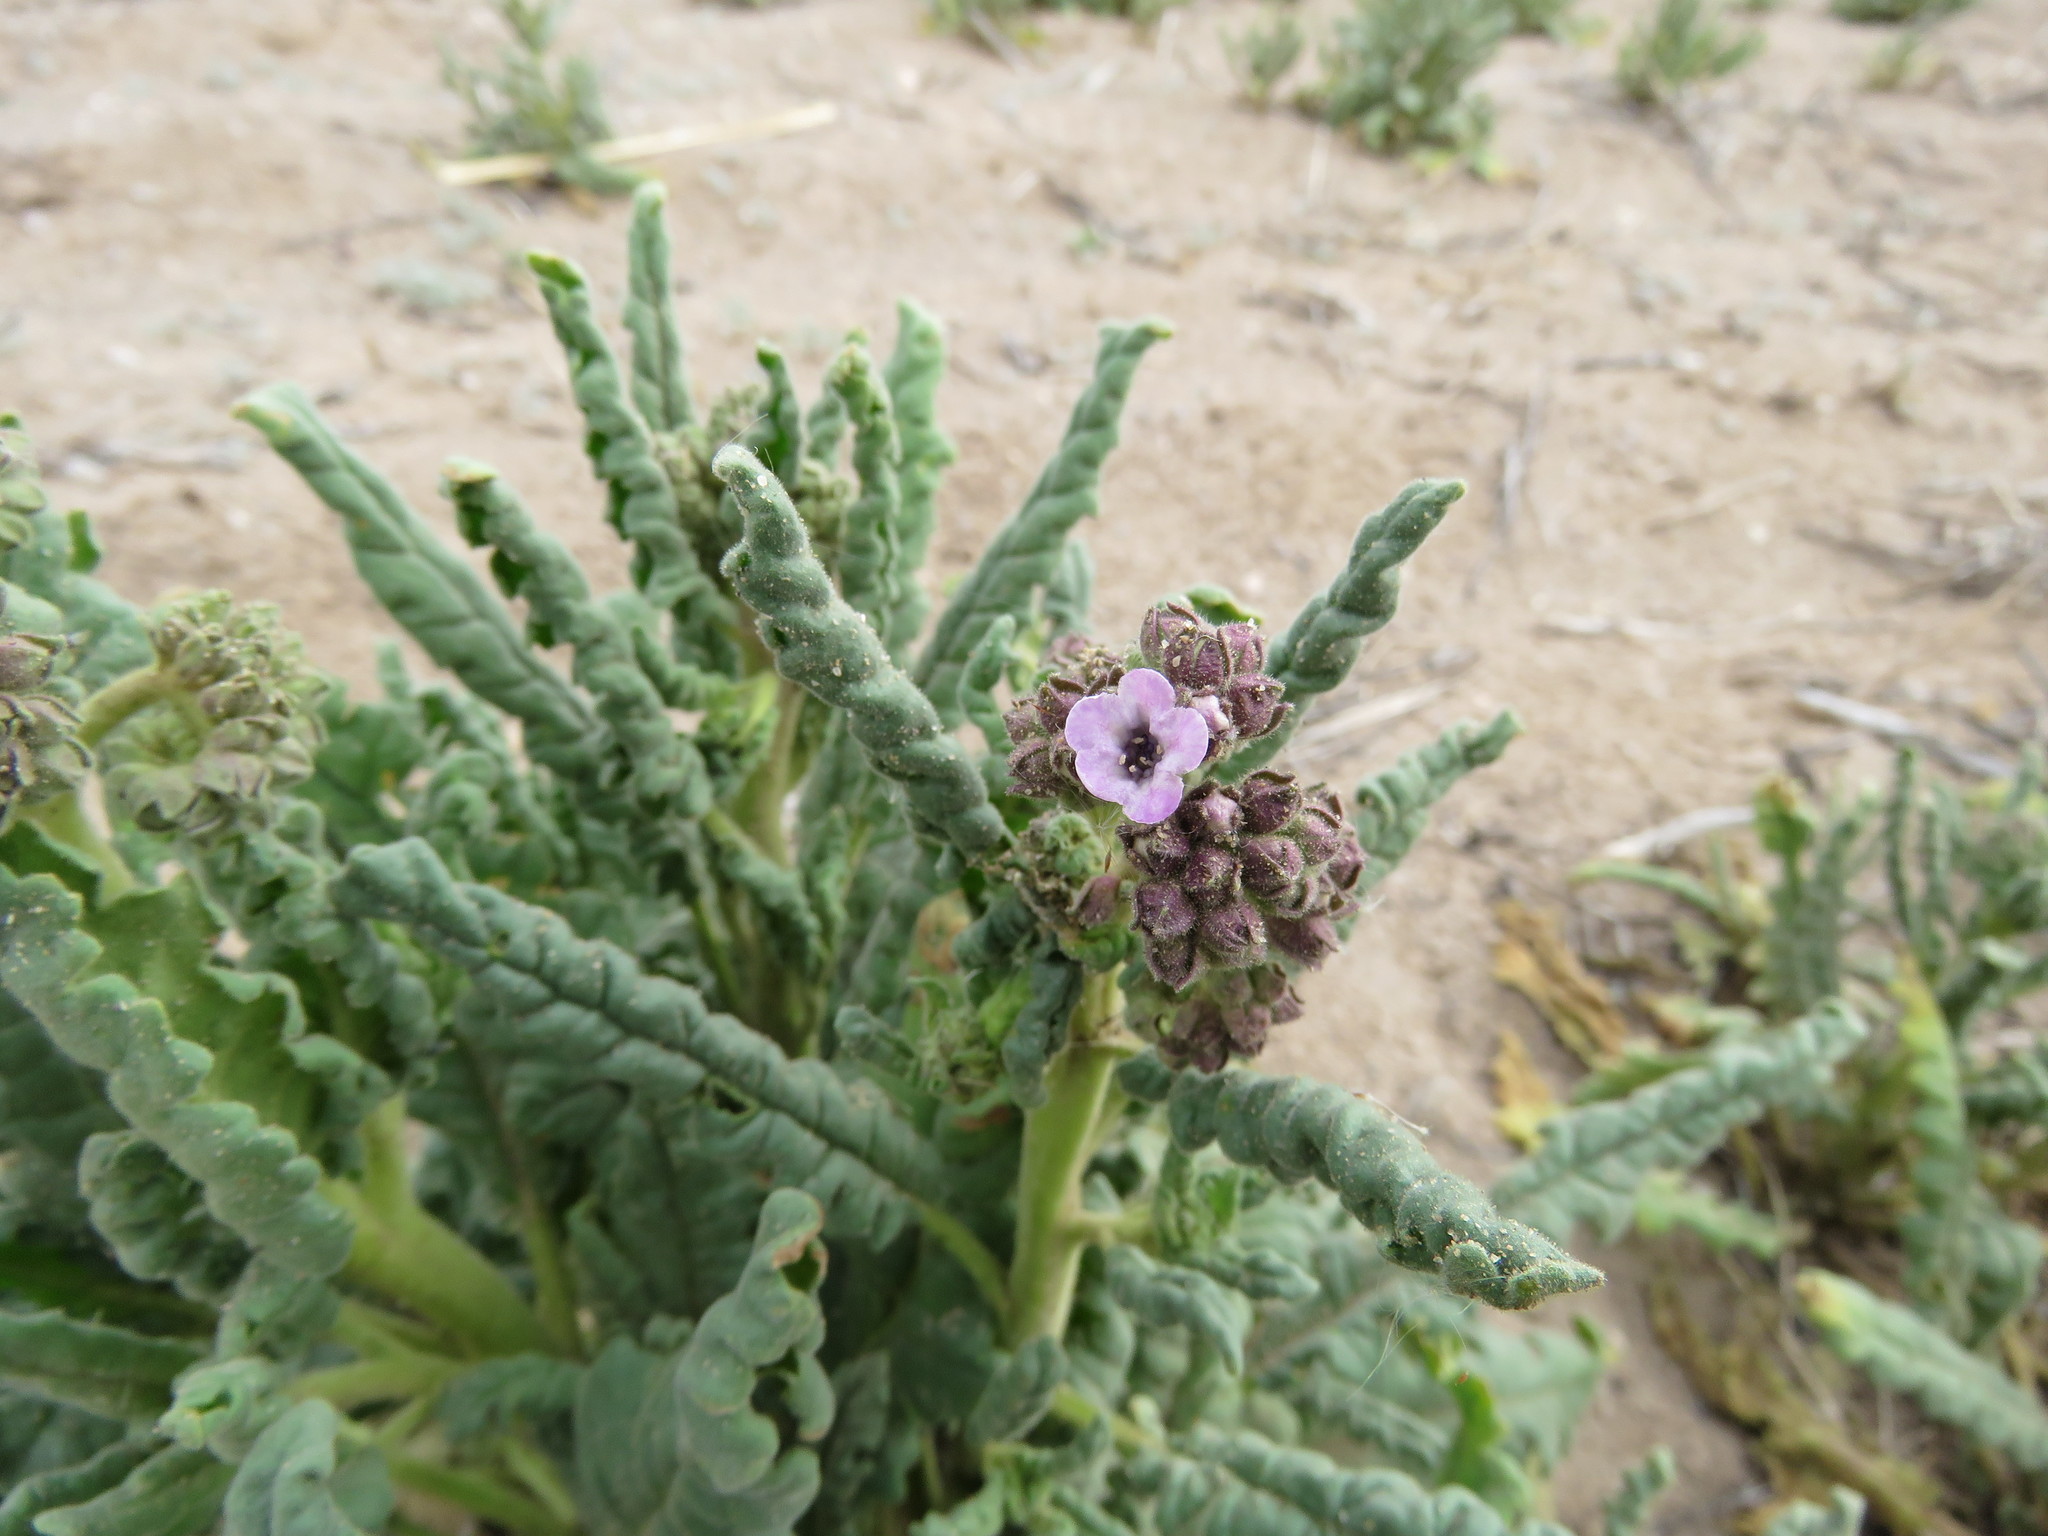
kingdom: Plantae
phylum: Tracheophyta
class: Magnoliopsida
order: Boraginales
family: Hydrophyllaceae
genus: Phacelia
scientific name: Phacelia integrifolia
